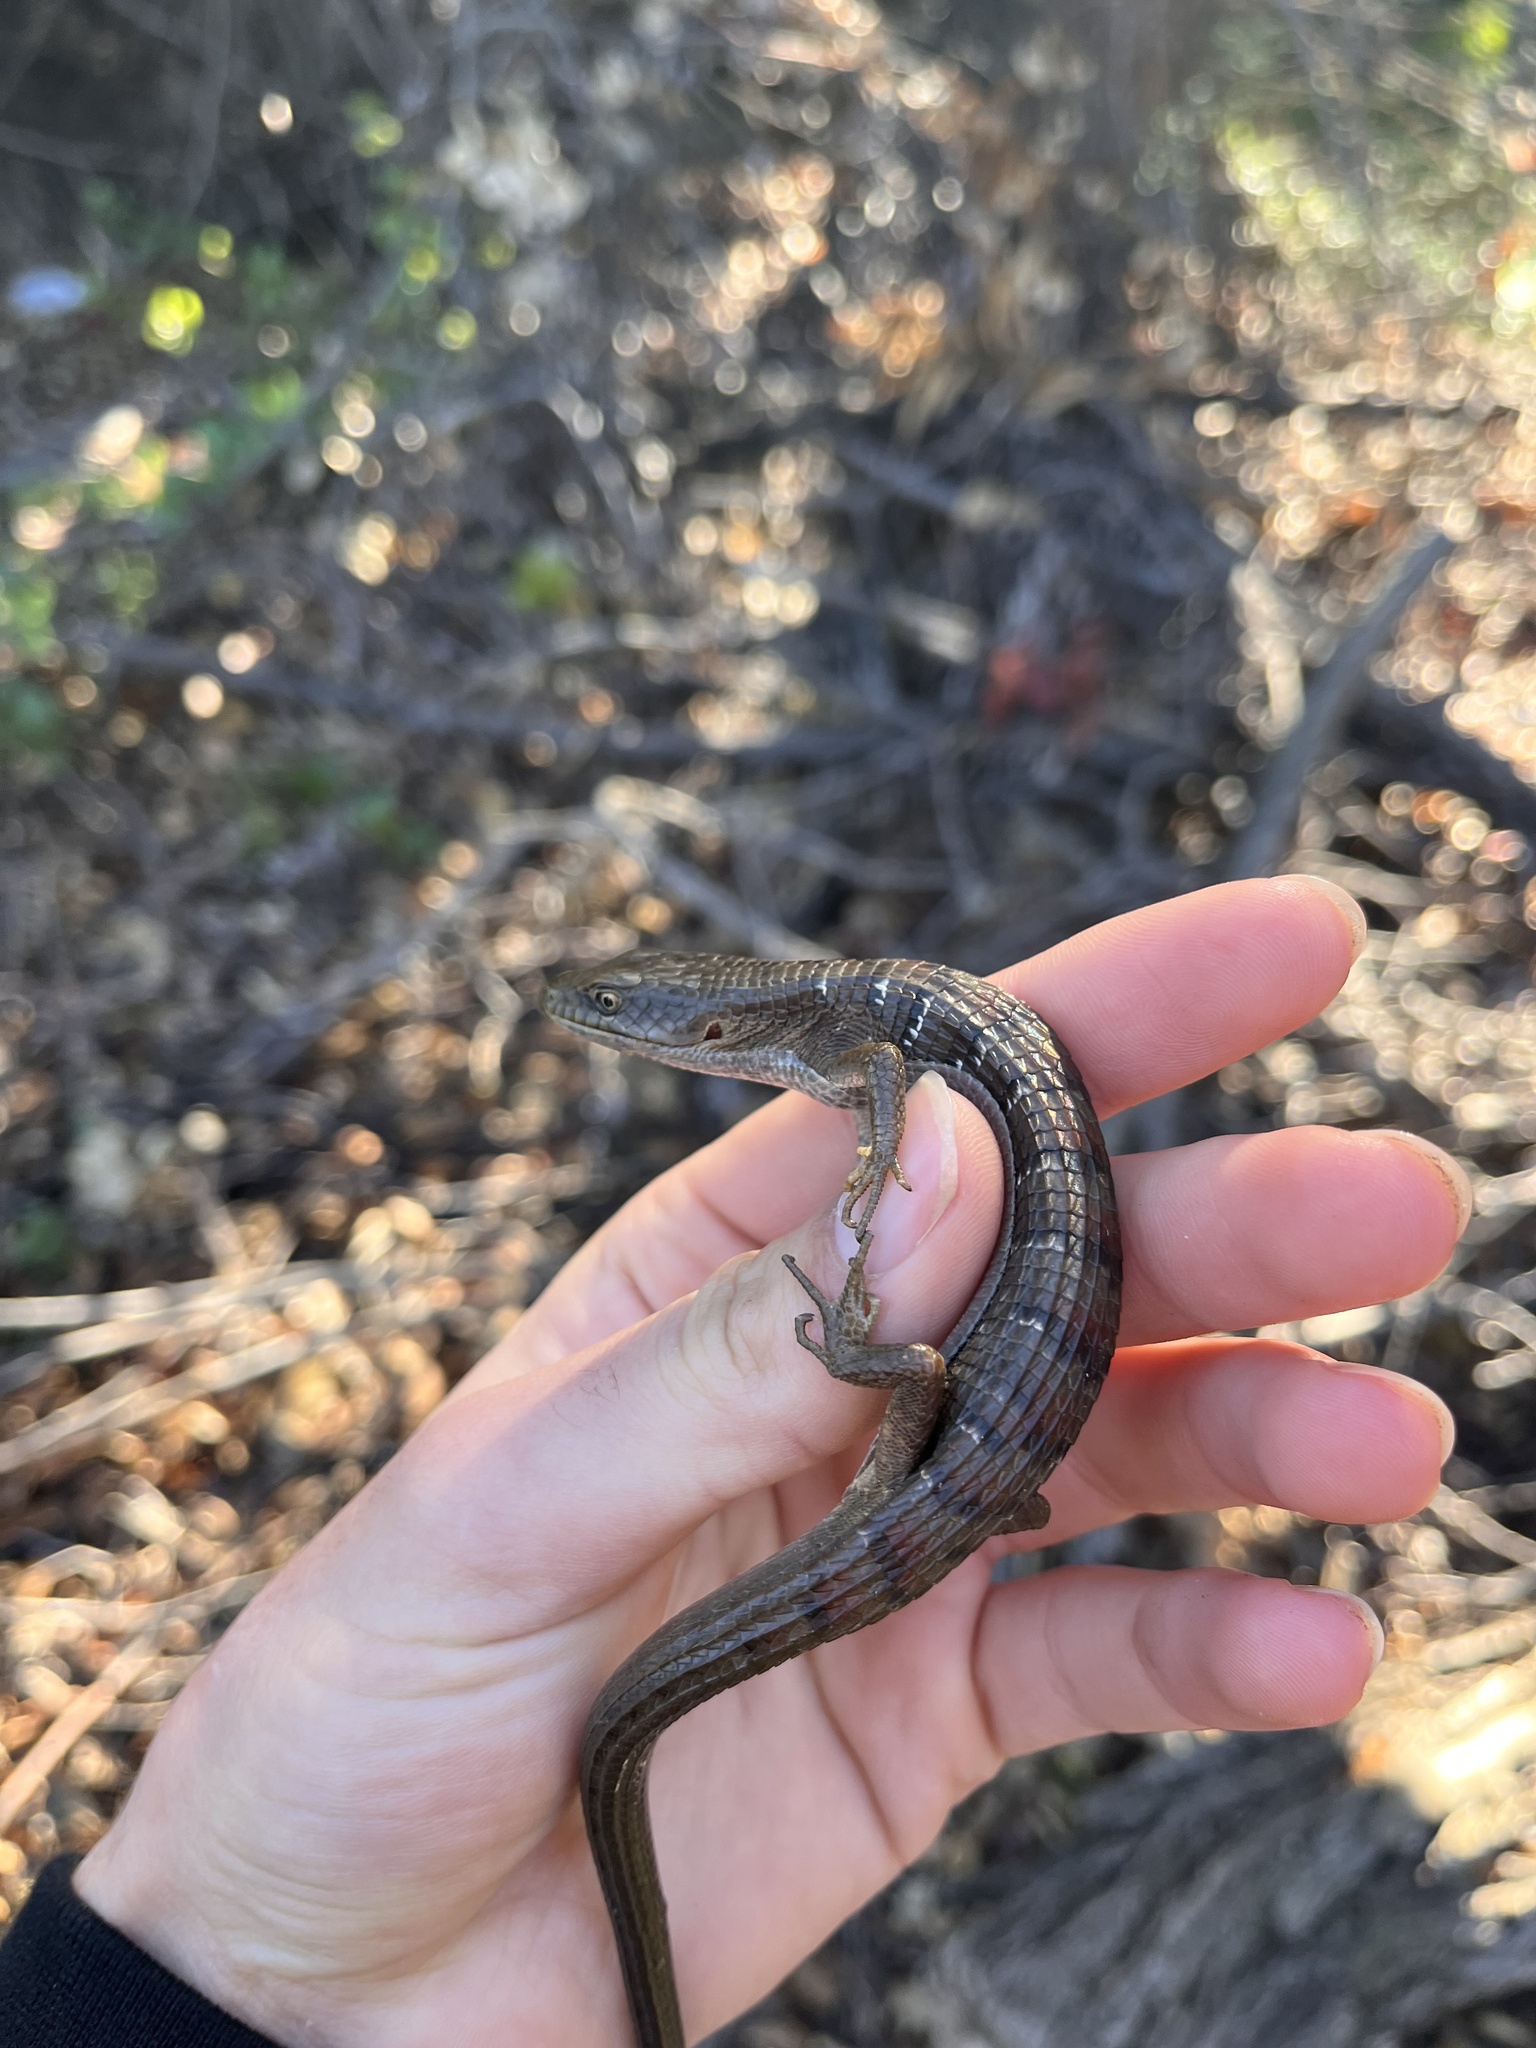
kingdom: Animalia
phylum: Chordata
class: Squamata
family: Anguidae
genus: Elgaria
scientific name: Elgaria multicarinata
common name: Southern alligator lizard
